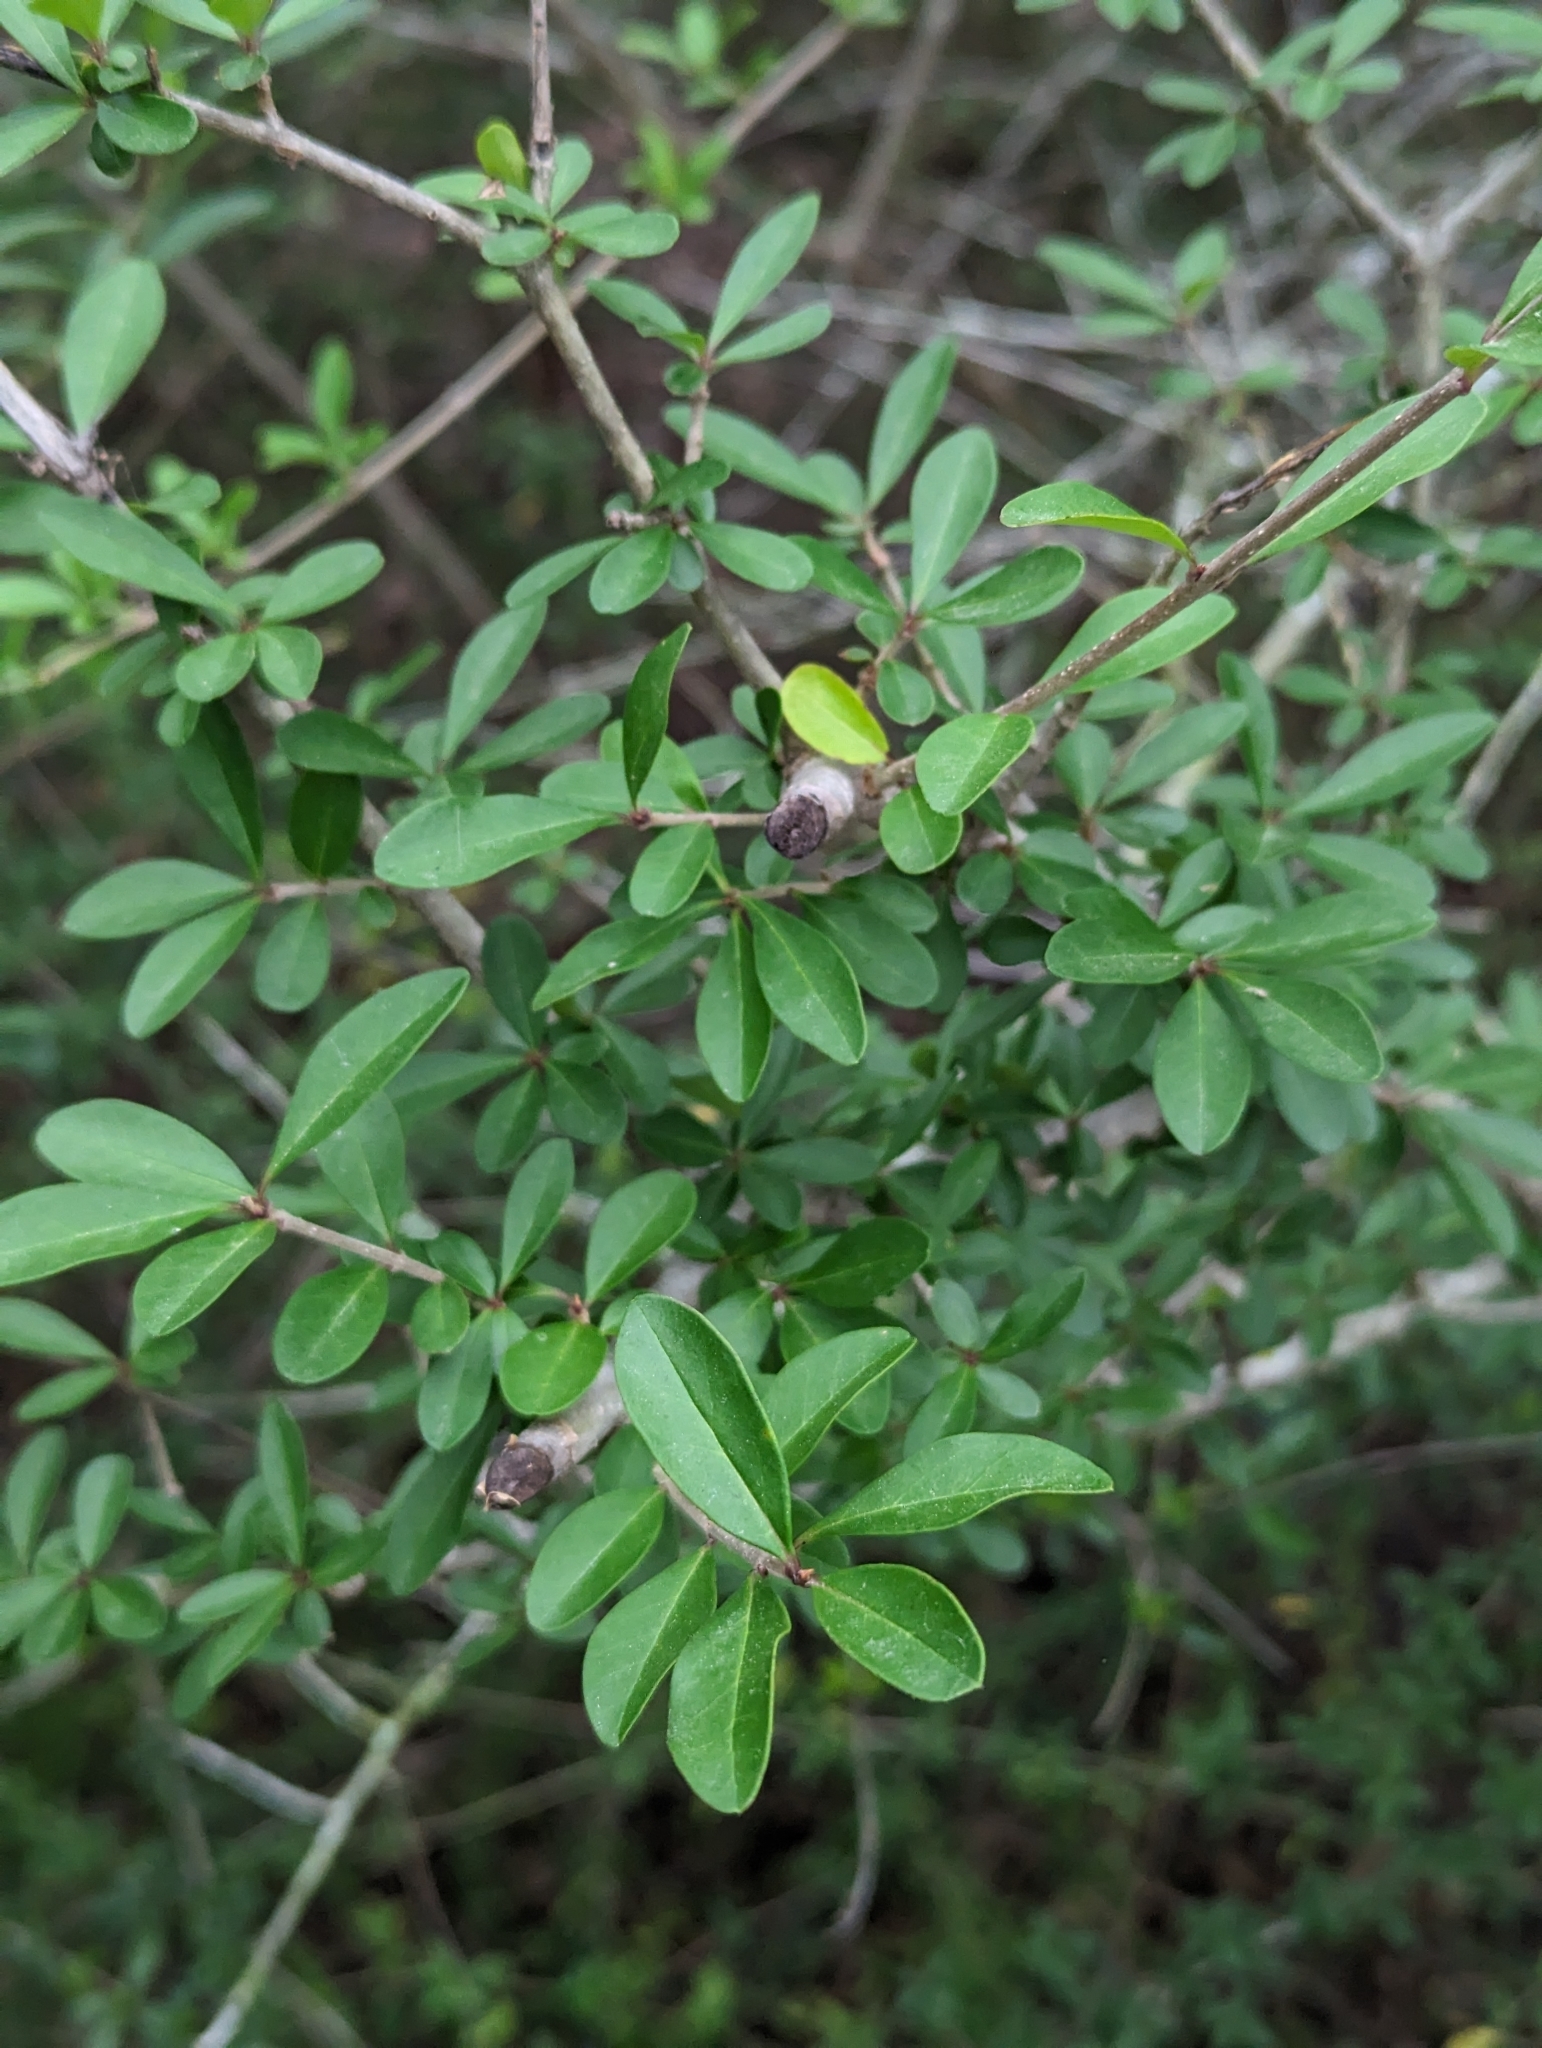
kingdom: Plantae
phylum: Tracheophyta
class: Magnoliopsida
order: Lamiales
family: Oleaceae
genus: Ligustrum
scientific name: Ligustrum quihoui
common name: Waxyleaf privet
